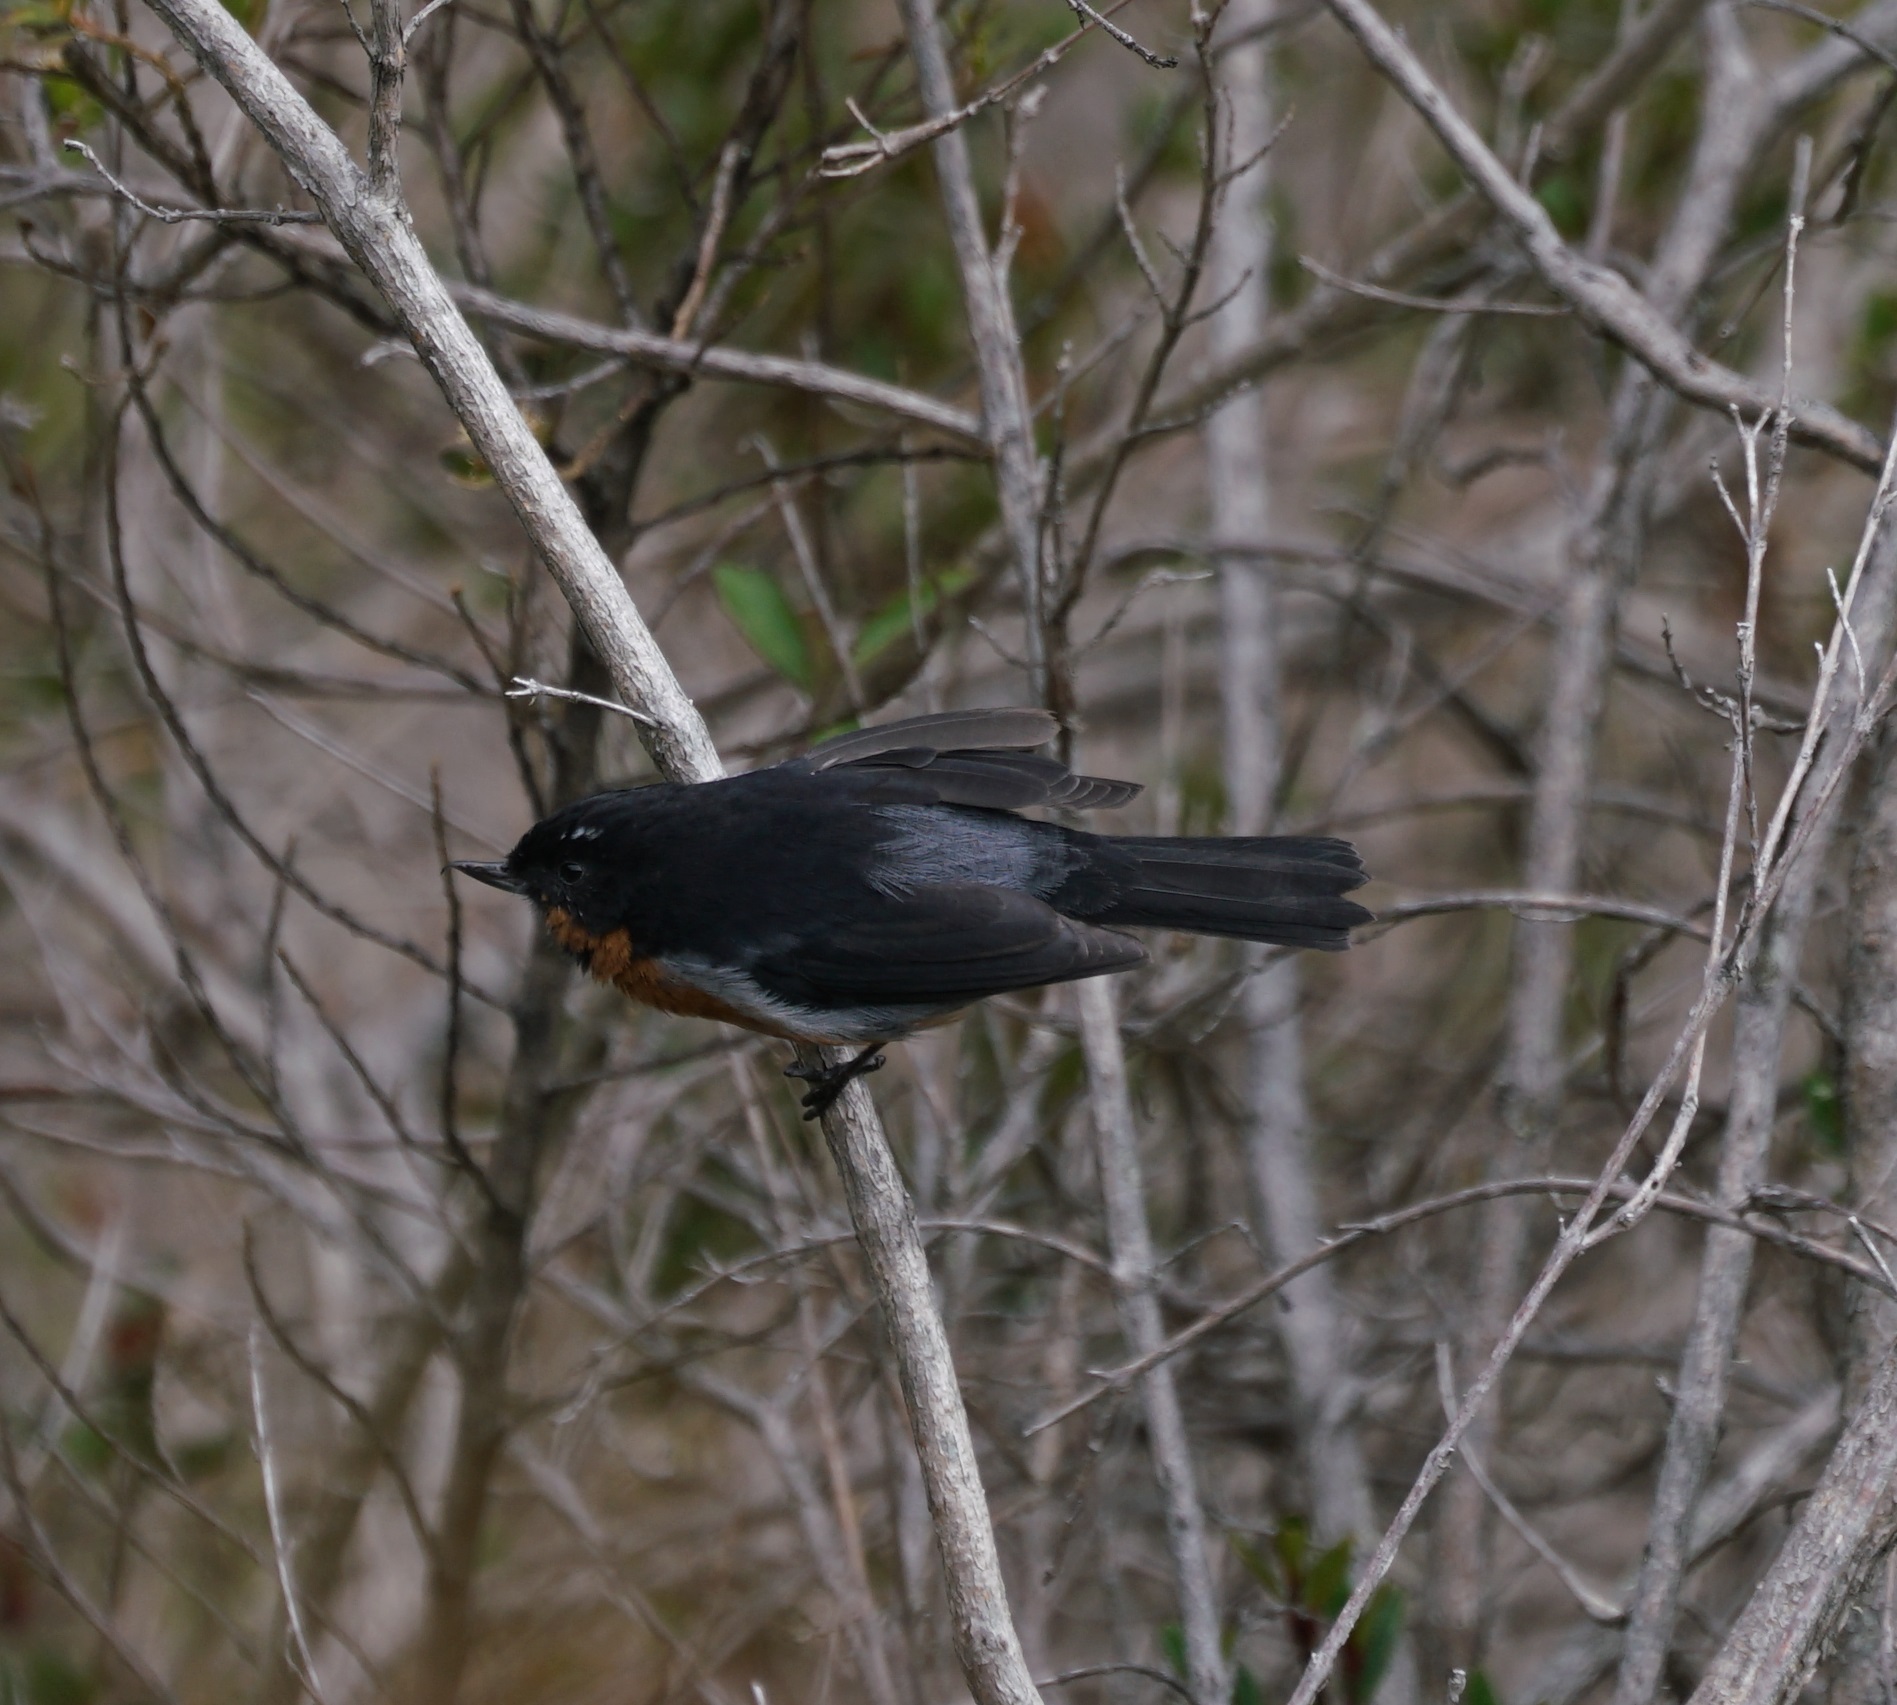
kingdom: Animalia
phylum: Chordata
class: Aves
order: Passeriformes
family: Thraupidae
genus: Diglossa
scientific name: Diglossa brunneiventris
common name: Black-throated flowerpiercer
